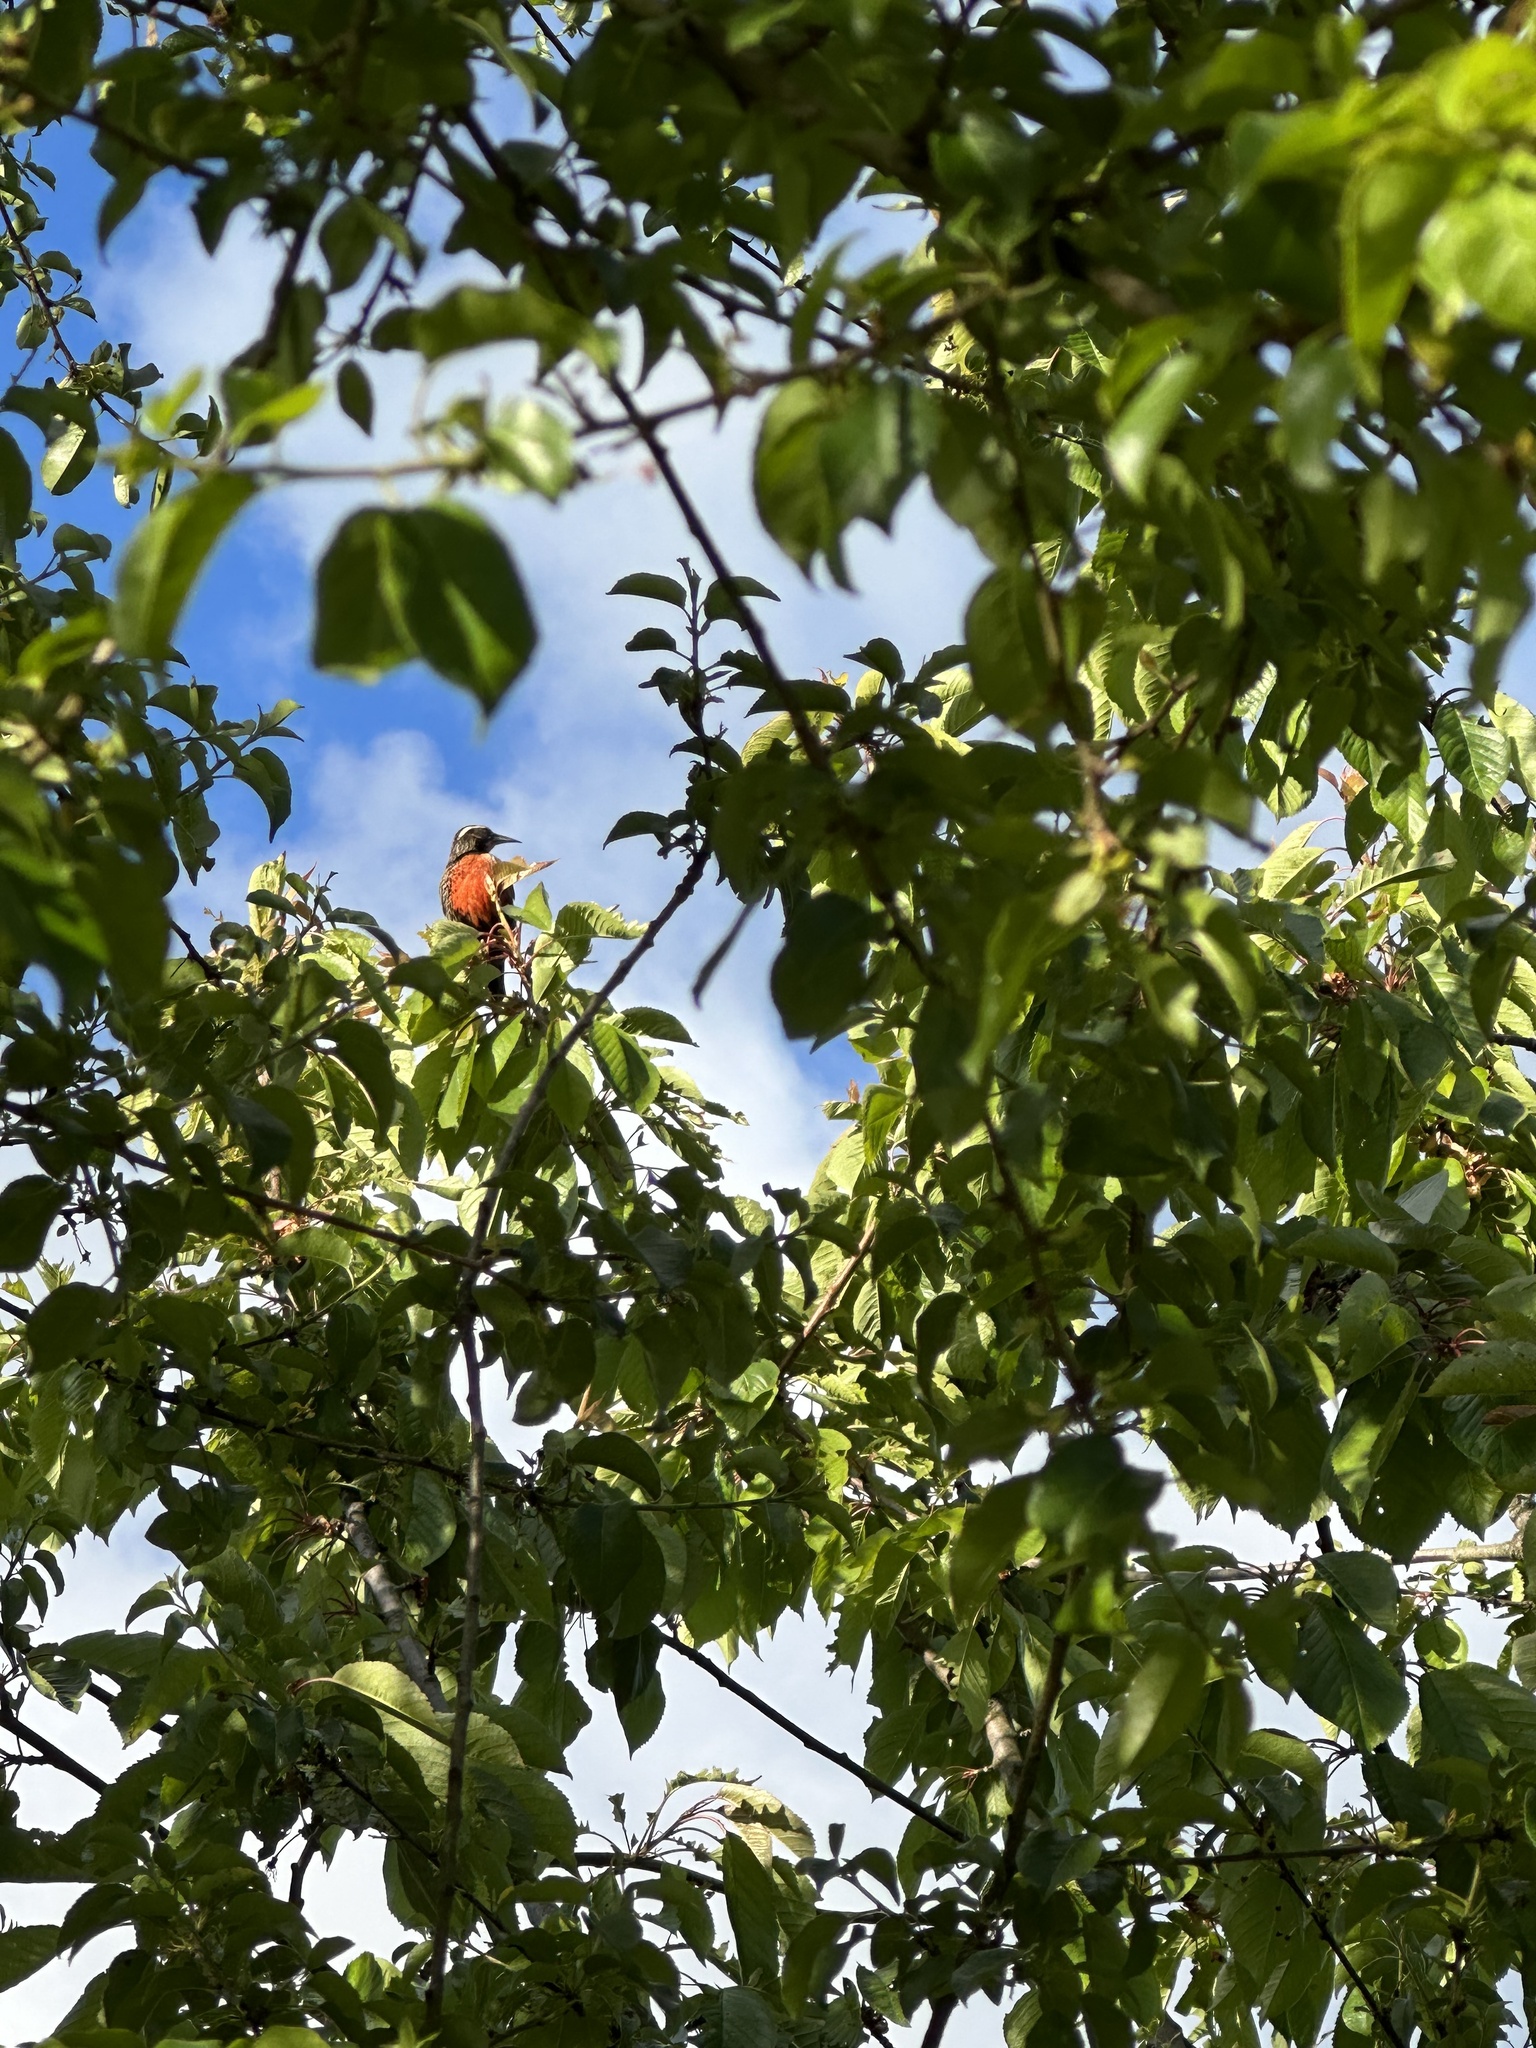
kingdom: Animalia
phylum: Chordata
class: Aves
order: Passeriformes
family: Icteridae
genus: Sturnella
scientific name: Sturnella loyca
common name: Long-tailed meadowlark
